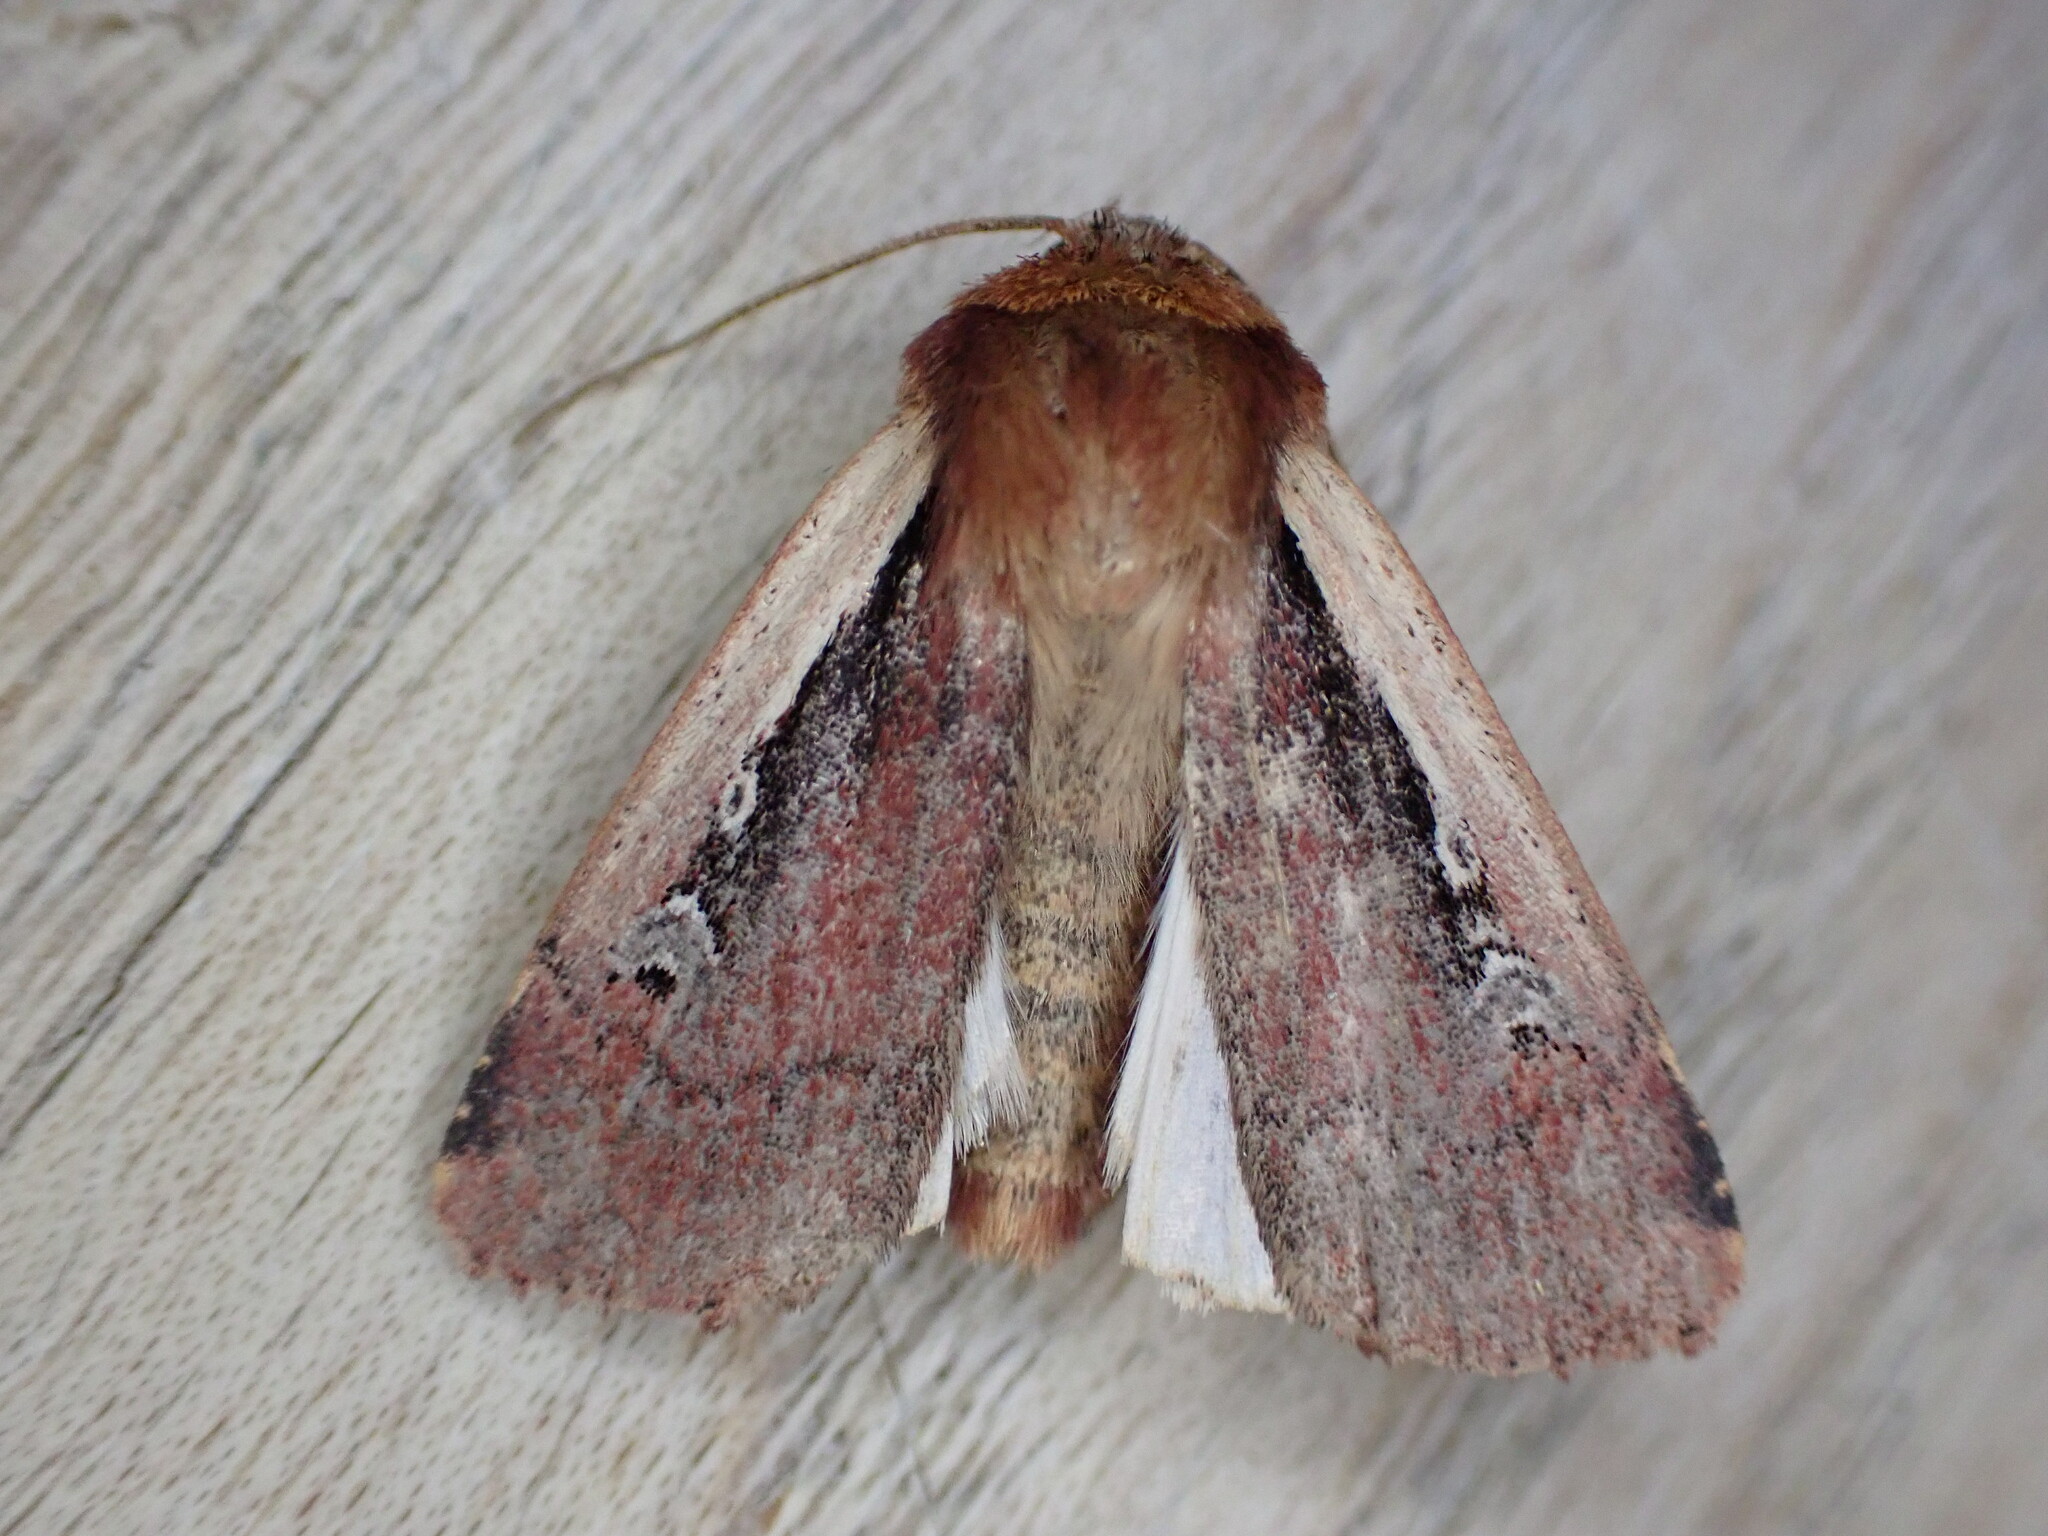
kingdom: Animalia
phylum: Arthropoda
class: Insecta
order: Lepidoptera
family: Noctuidae
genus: Ochropleura
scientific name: Ochropleura plecta
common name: Flame shoulder
